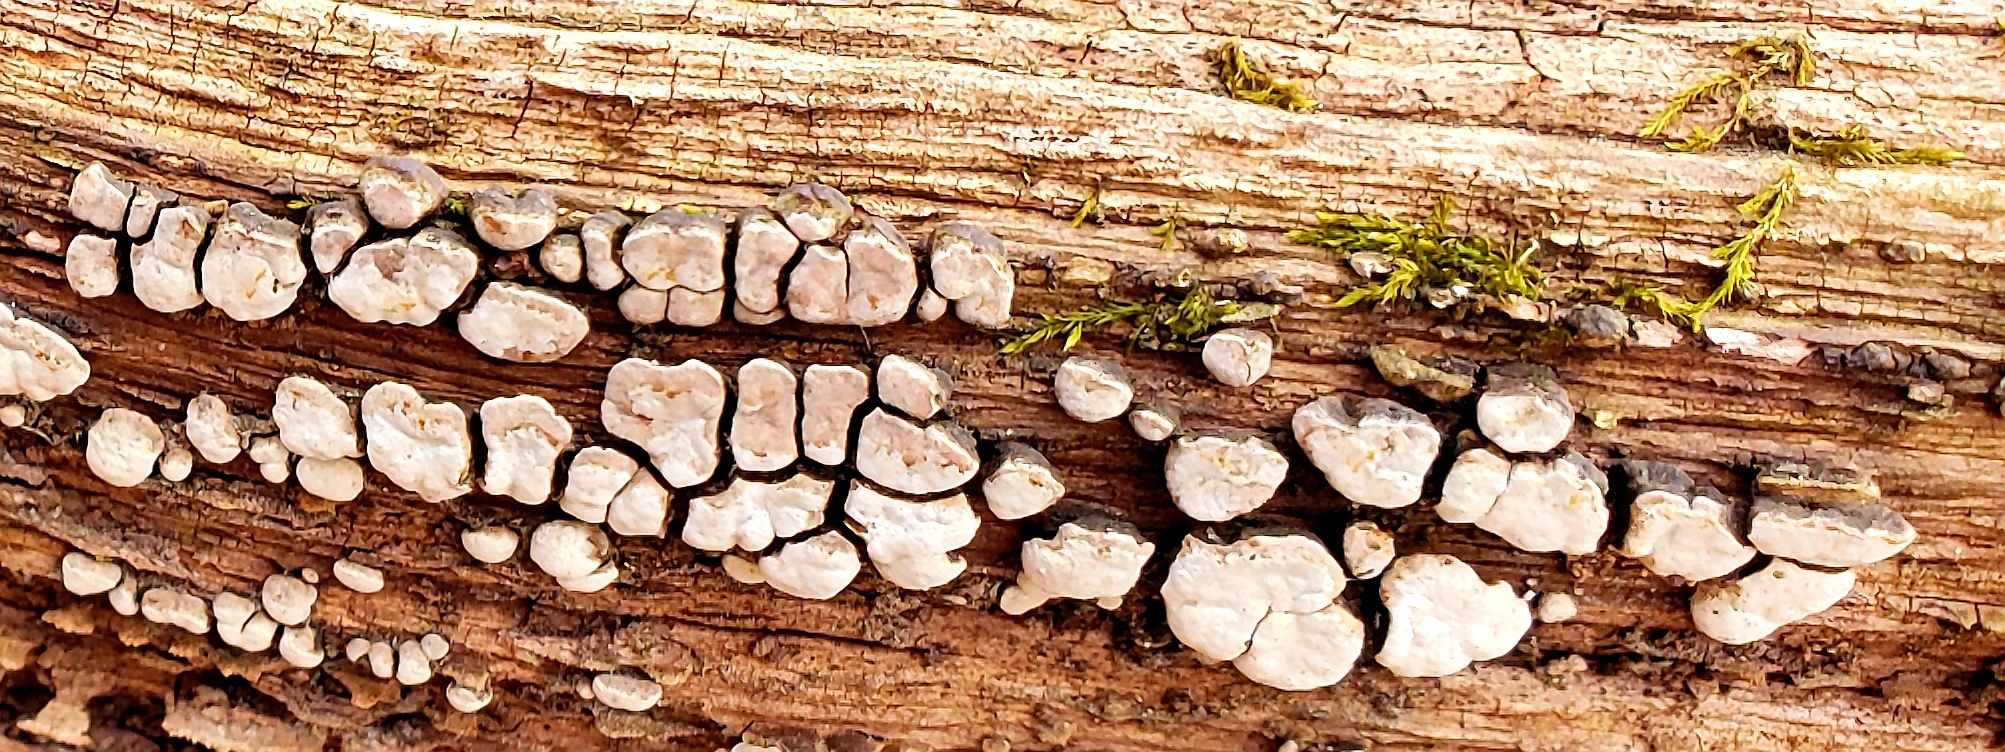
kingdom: Fungi
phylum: Basidiomycota
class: Agaricomycetes
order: Russulales
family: Stereaceae
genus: Xylobolus
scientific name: Xylobolus frustulatus
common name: Ceramic parchment
